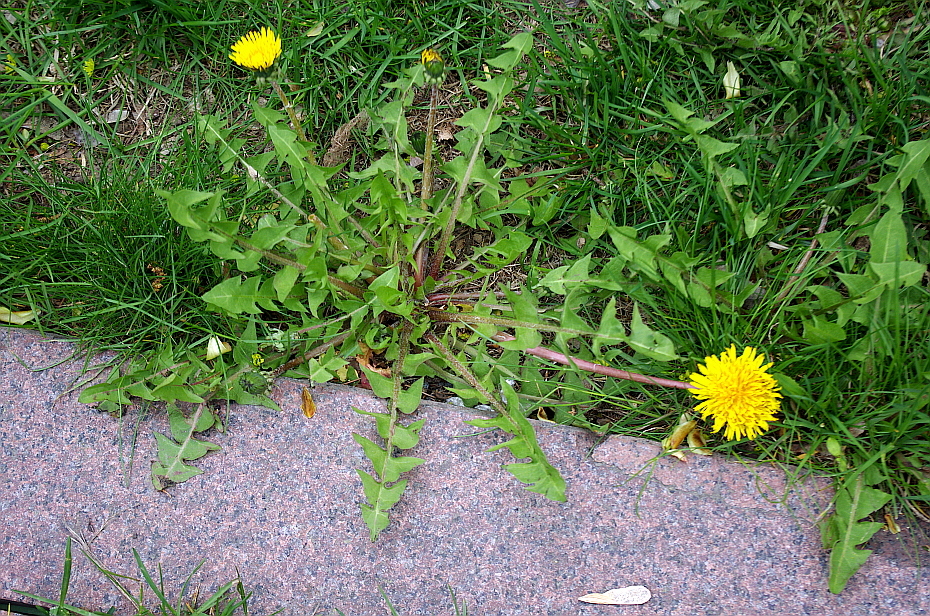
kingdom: Plantae
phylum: Tracheophyta
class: Magnoliopsida
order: Asterales
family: Asteraceae
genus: Taraxacum
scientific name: Taraxacum officinale
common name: Common dandelion
